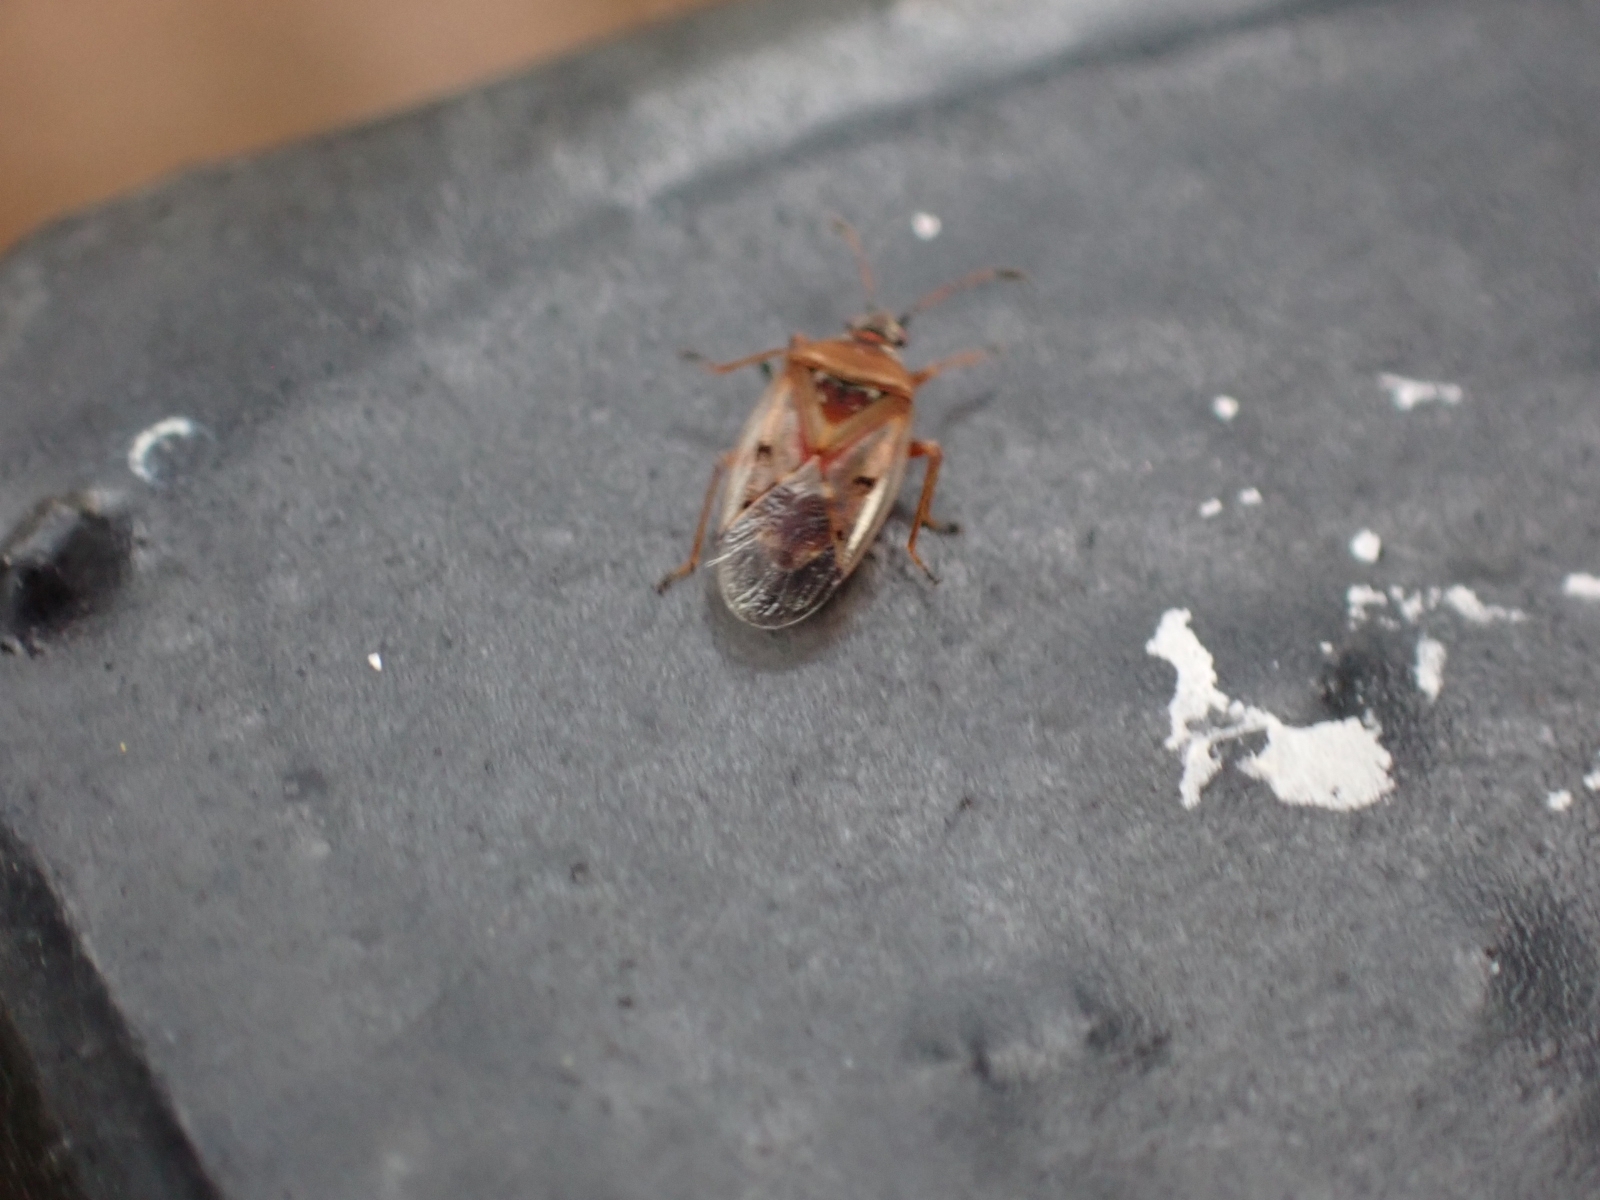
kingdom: Animalia
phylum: Arthropoda
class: Insecta
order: Hemiptera
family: Lygaeidae
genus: Kleidocerys
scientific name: Kleidocerys resedae
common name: Birch catkin bug
